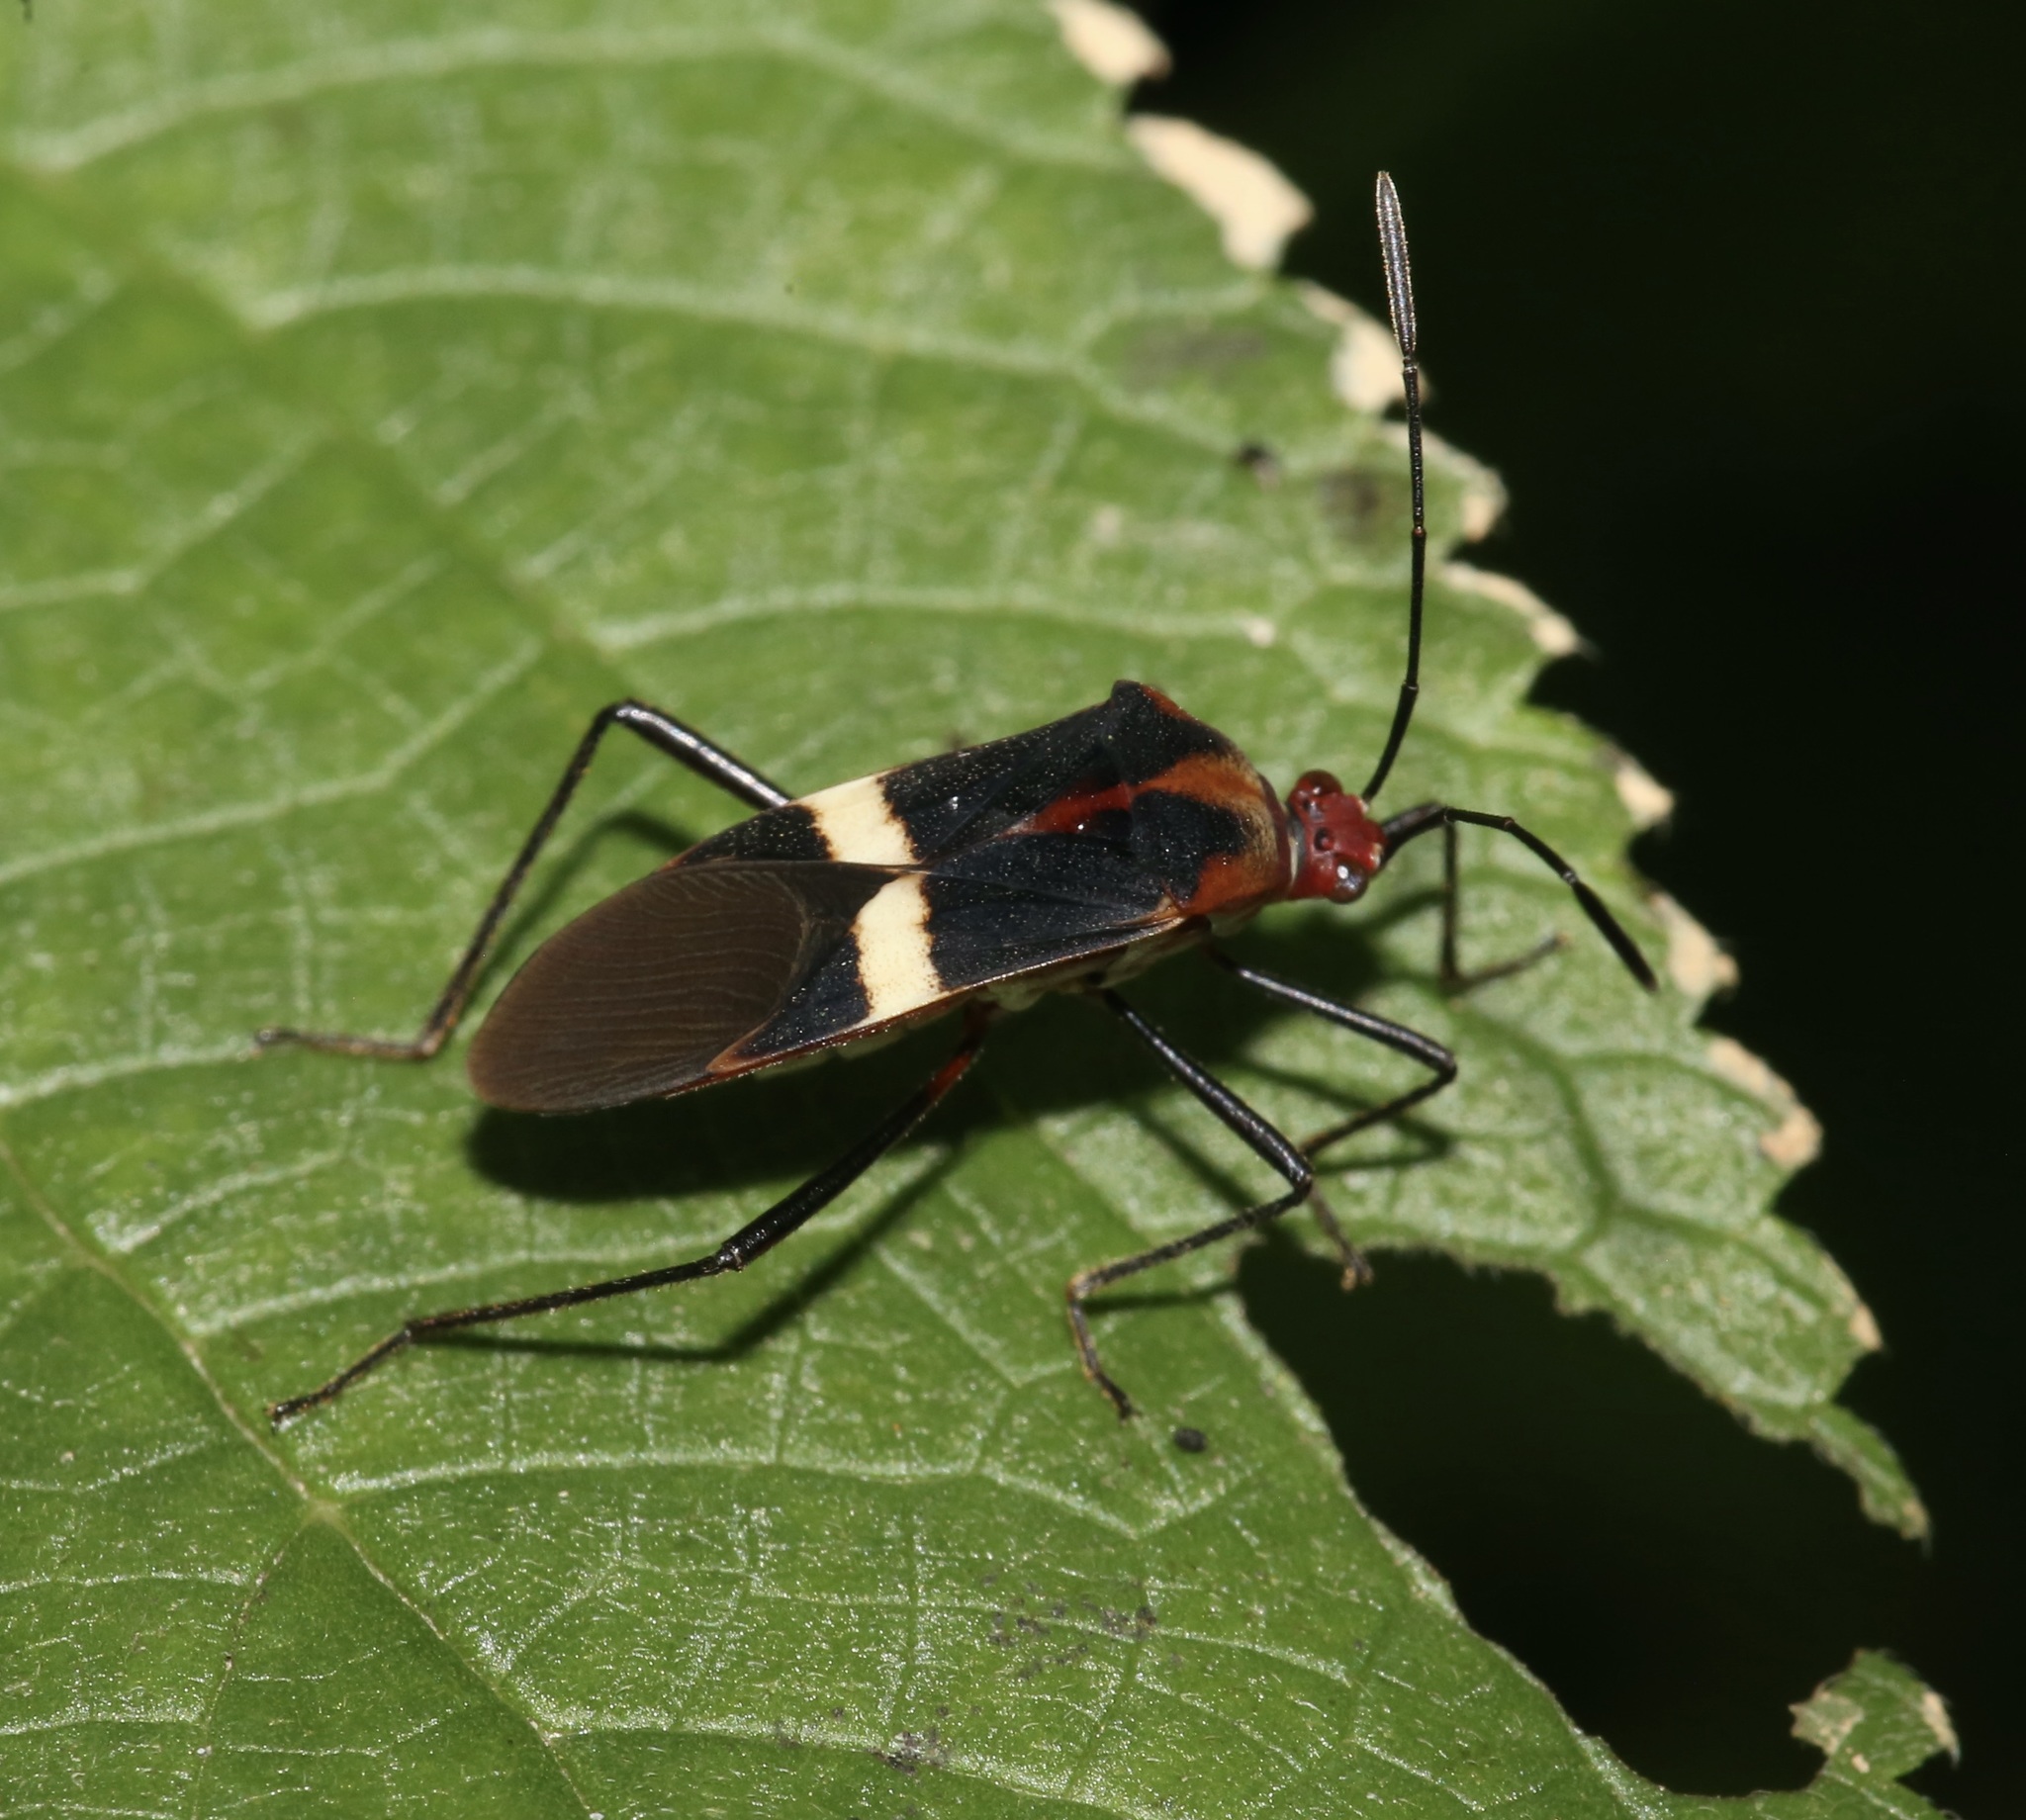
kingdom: Animalia
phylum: Arthropoda
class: Insecta
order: Hemiptera
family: Coreidae
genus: Hypselonotus
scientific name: Hypselonotus interruptus
